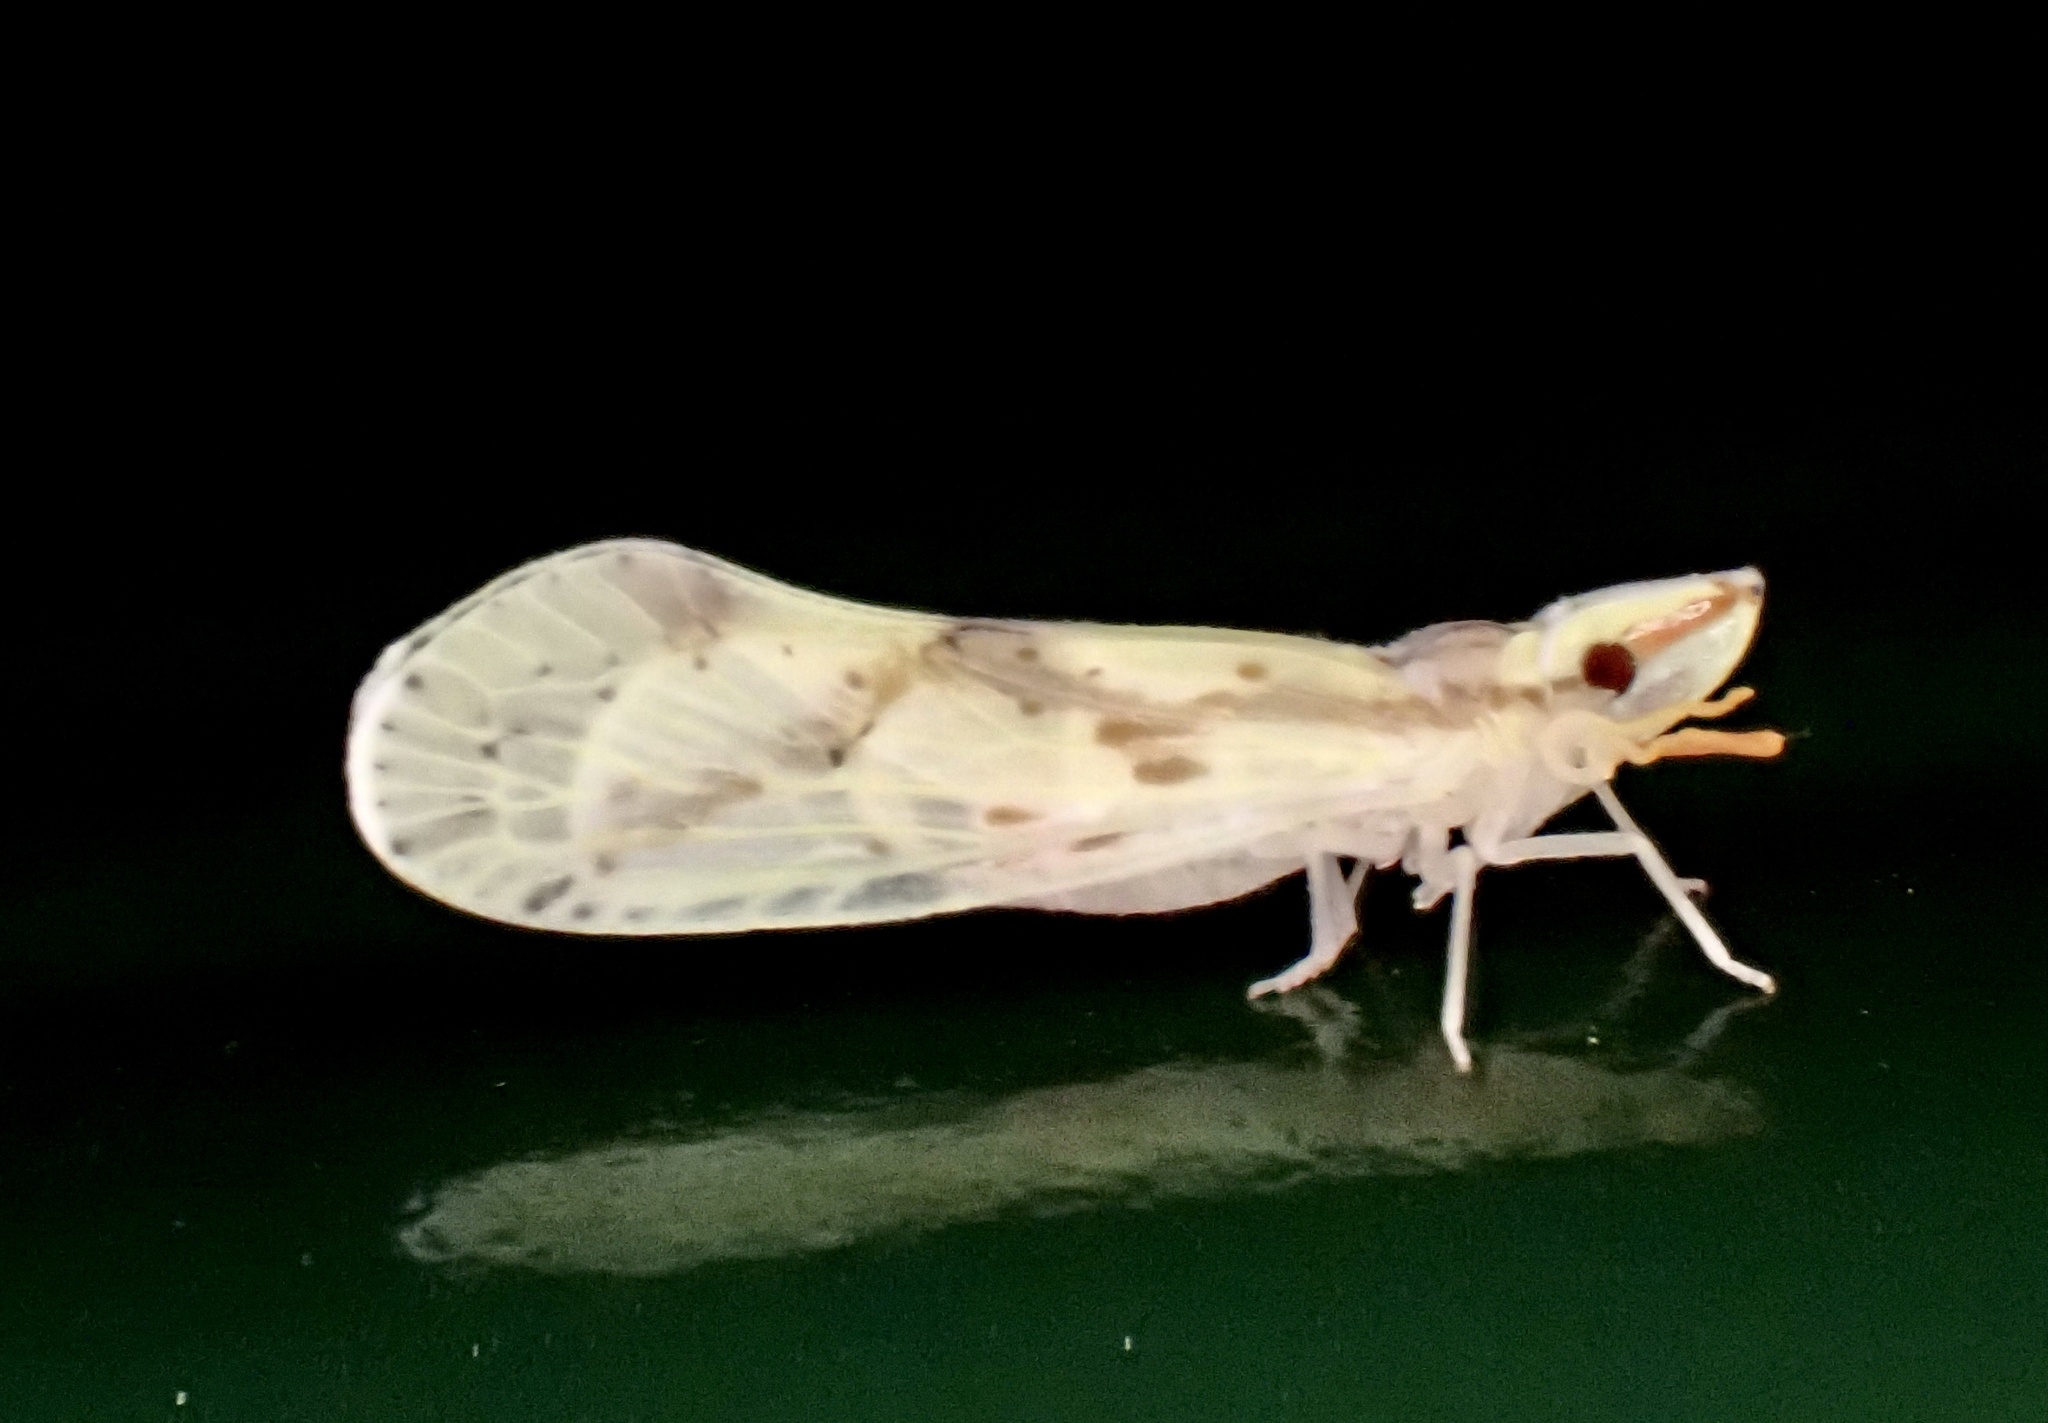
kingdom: Animalia
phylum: Arthropoda
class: Insecta
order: Hemiptera
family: Derbidae
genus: Otiocerus
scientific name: Otiocerus wolfii
